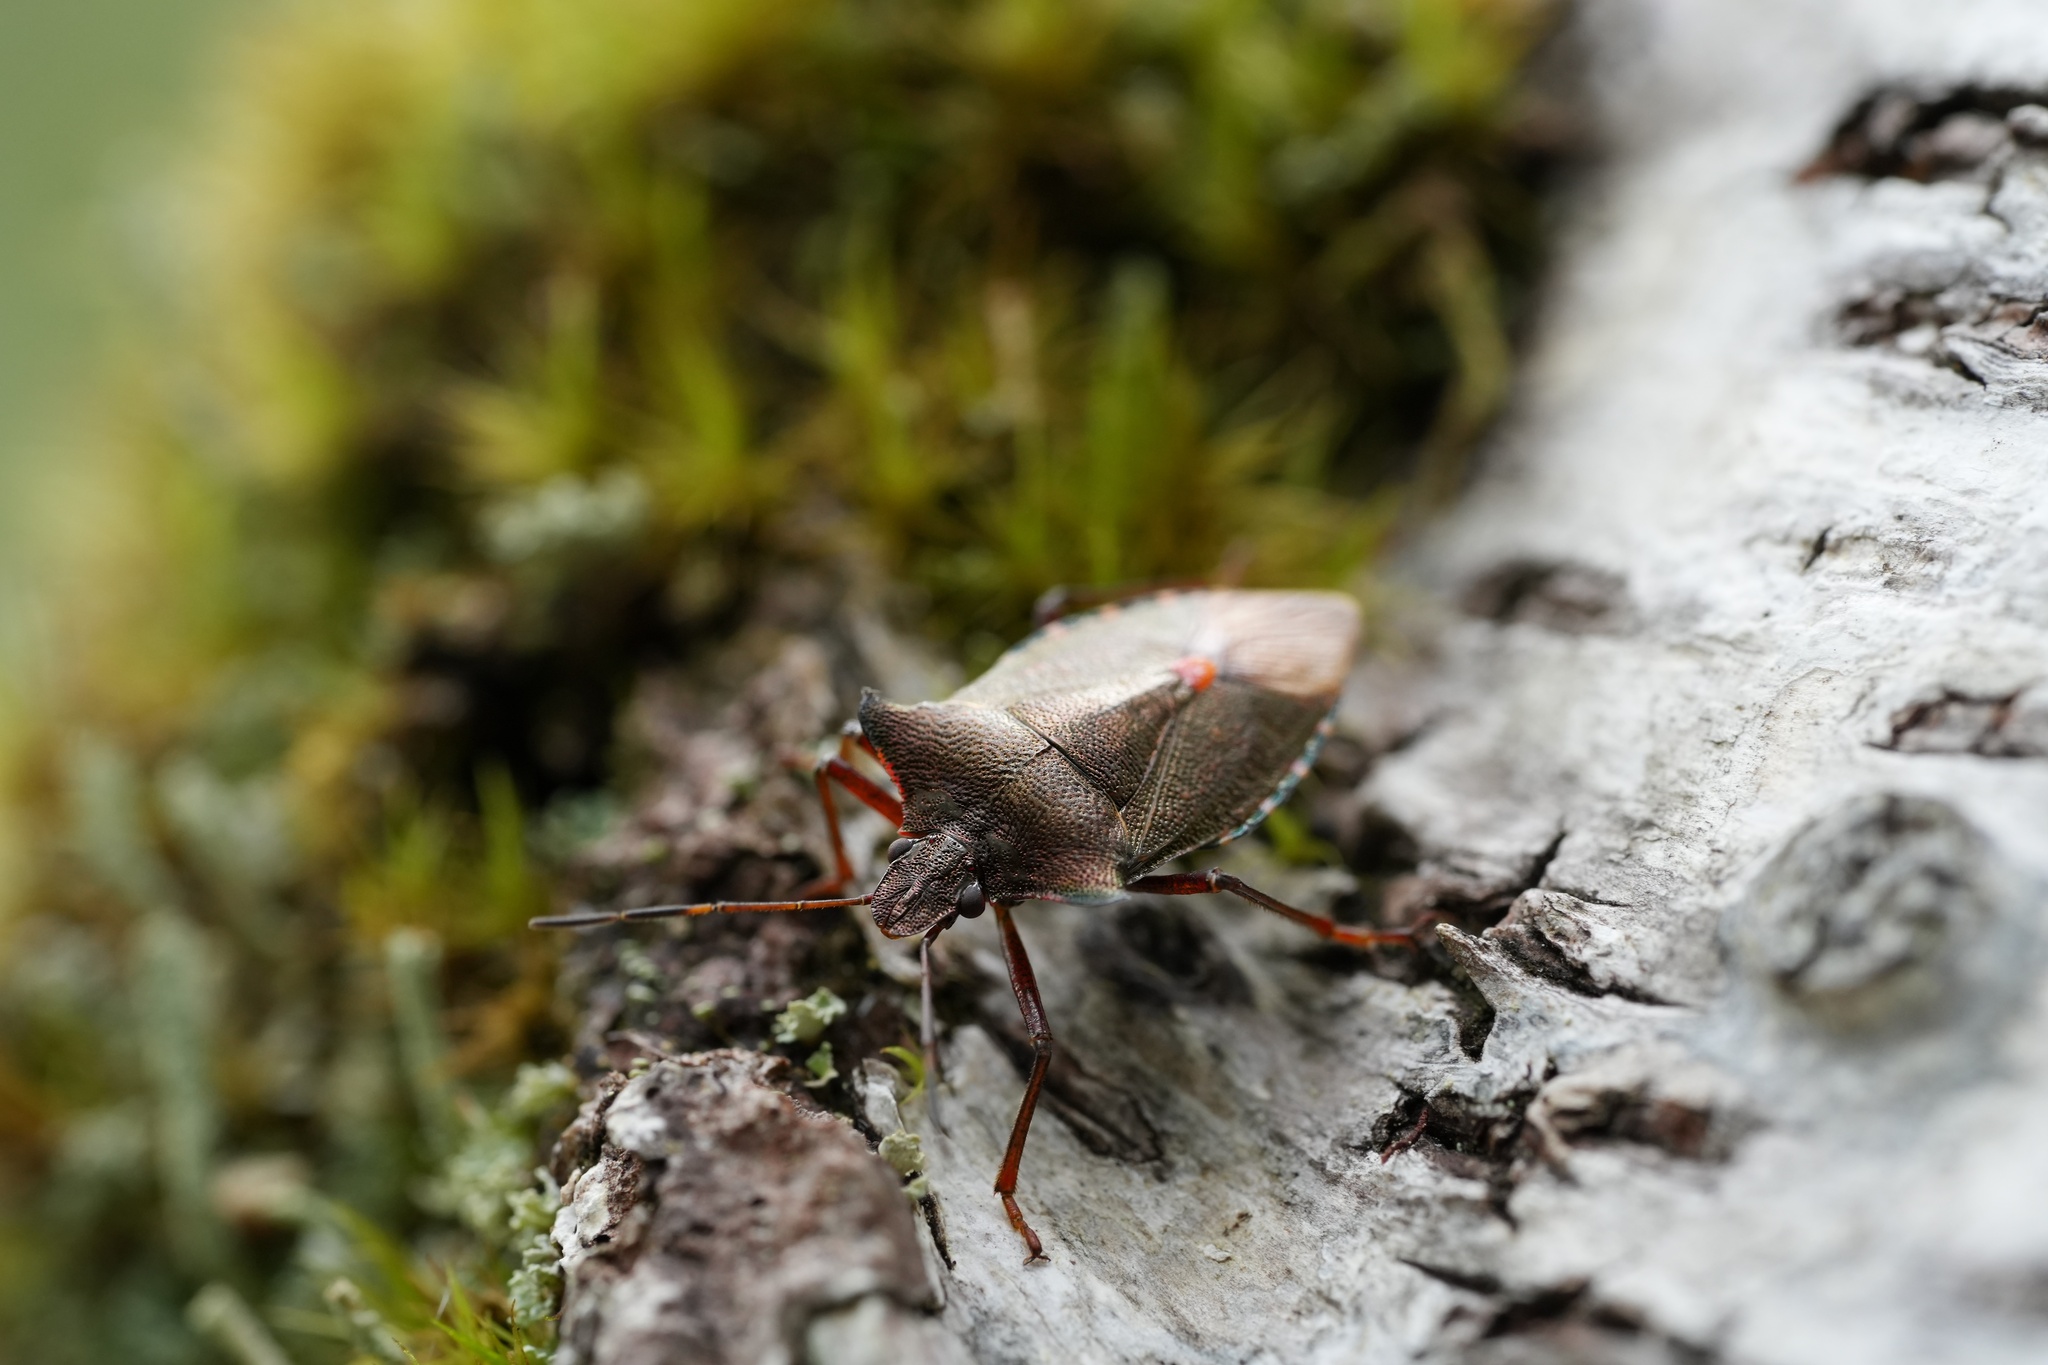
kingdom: Animalia
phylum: Arthropoda
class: Insecta
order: Hemiptera
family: Pentatomidae
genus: Pentatoma
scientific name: Pentatoma rufipes
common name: Forest bug
